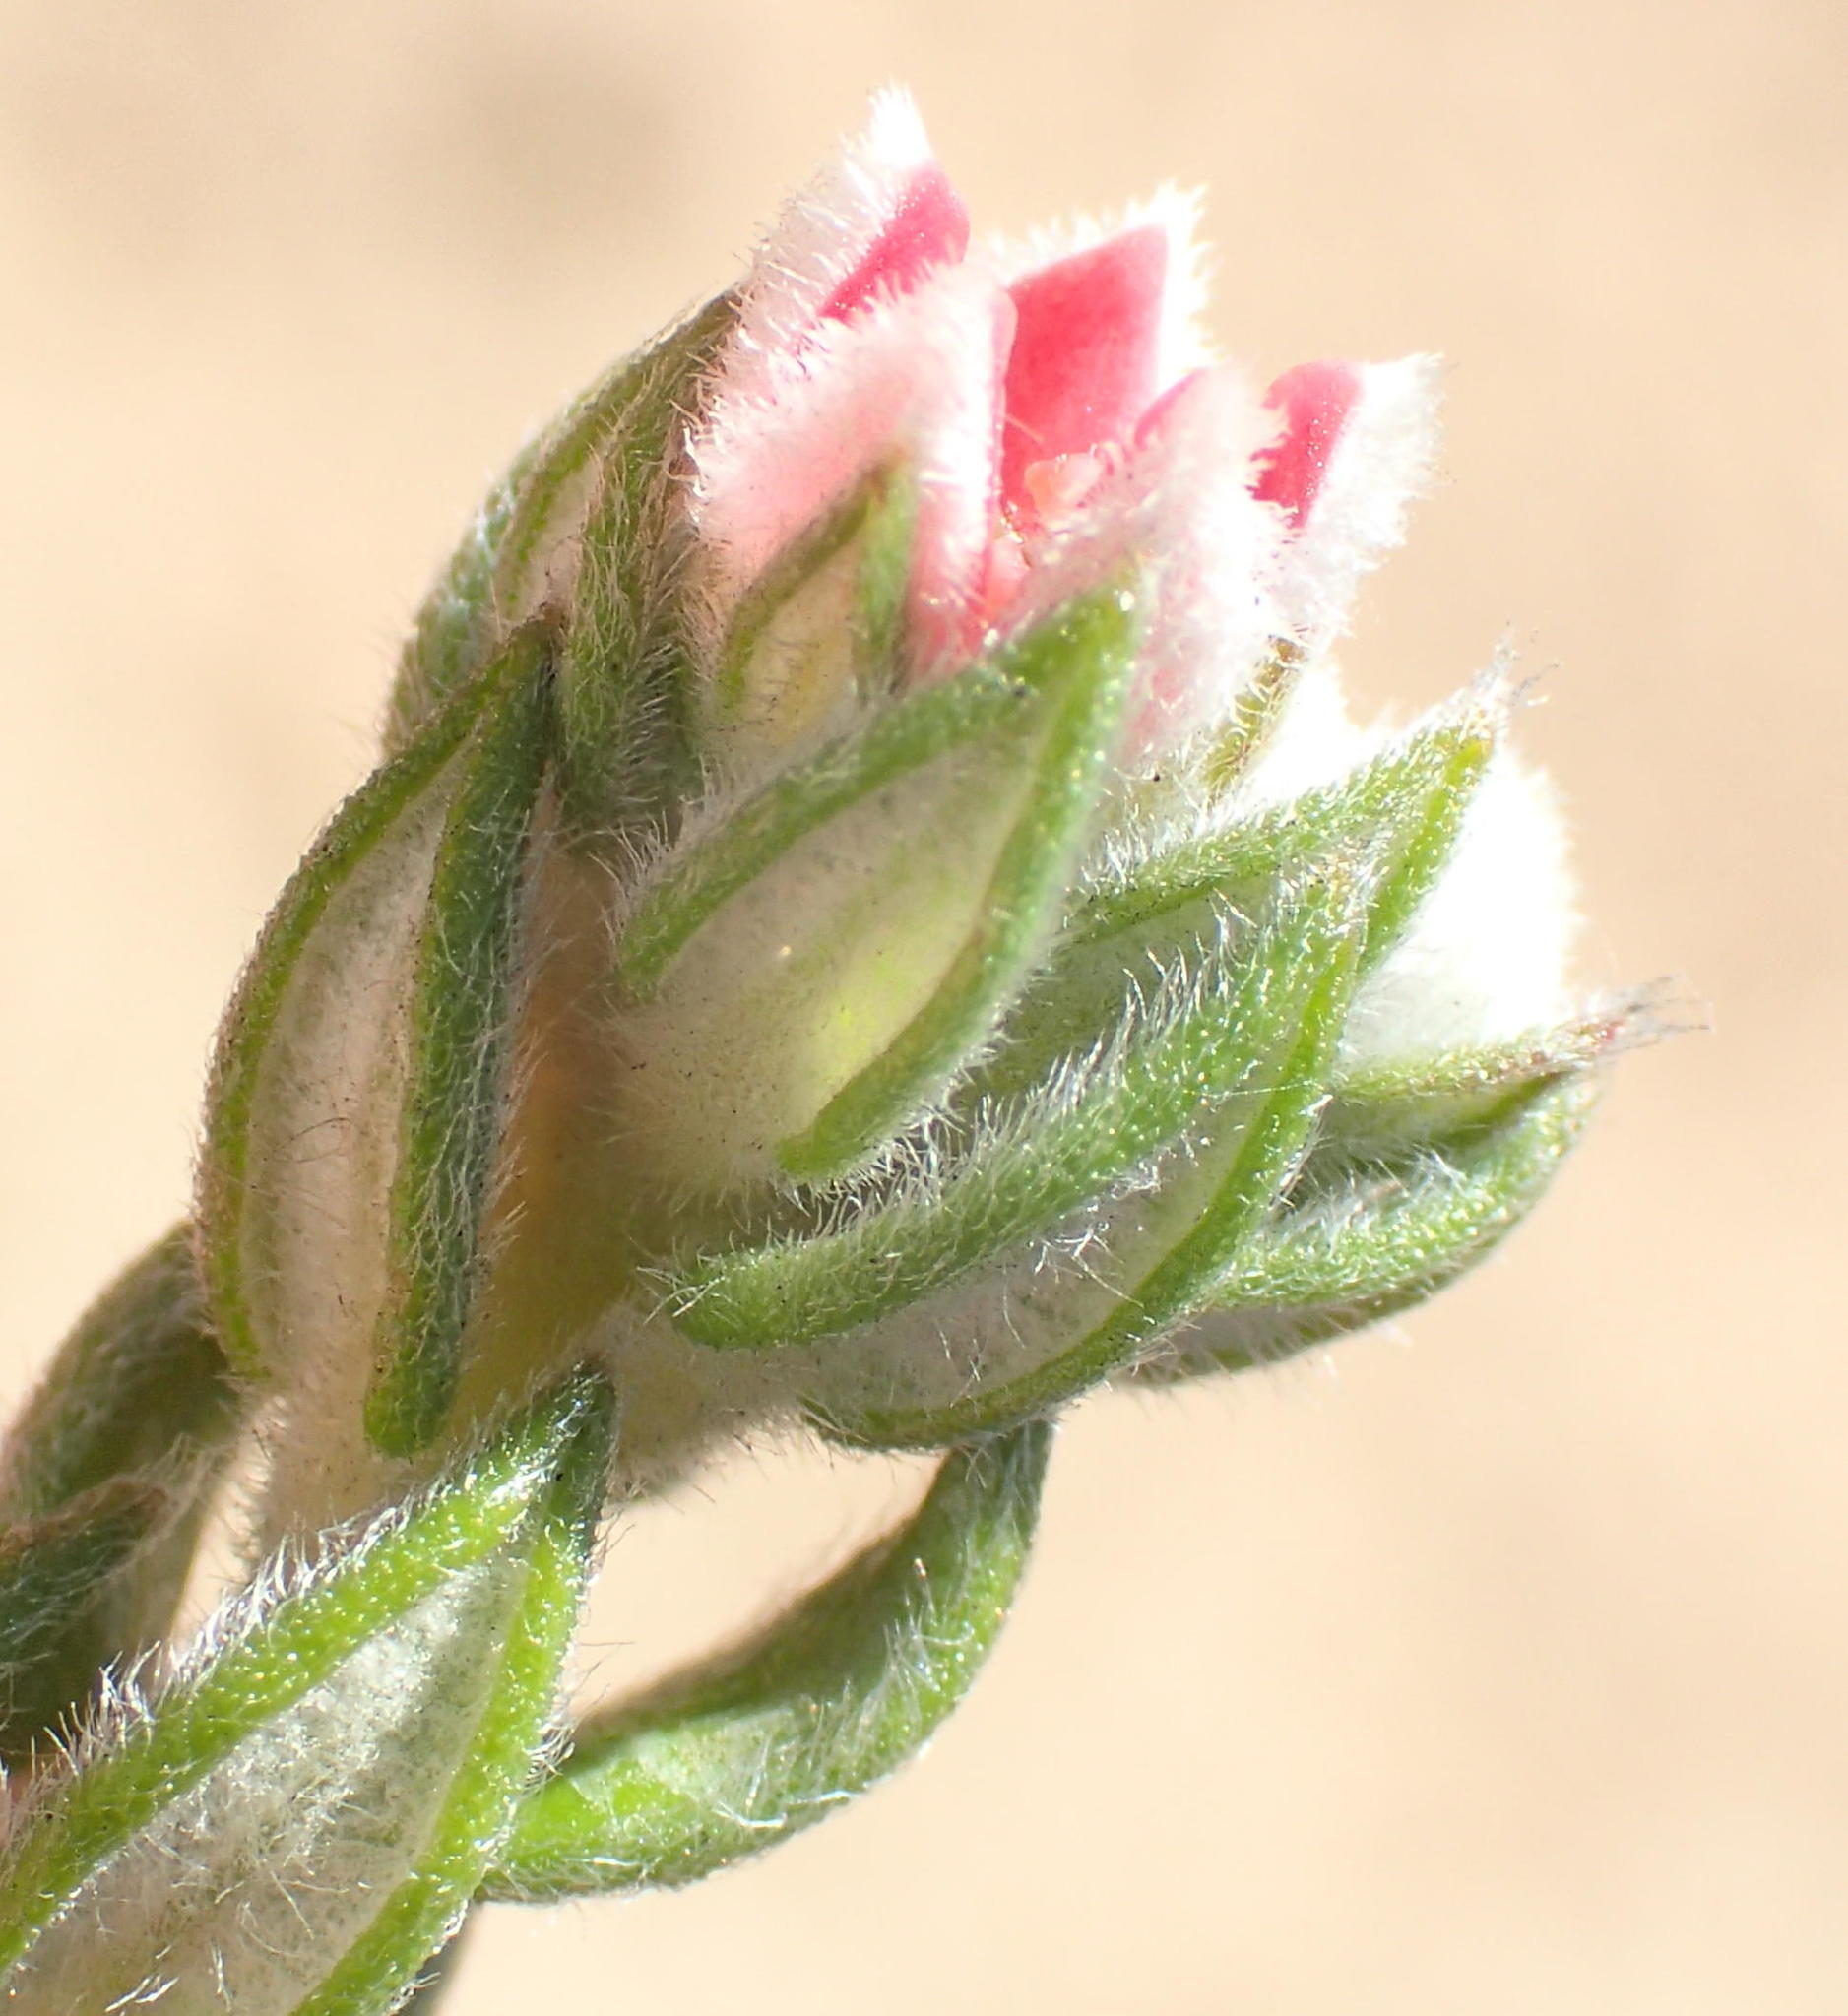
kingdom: Plantae
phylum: Tracheophyta
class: Magnoliopsida
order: Rosales
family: Rhamnaceae
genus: Phylica
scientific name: Phylica purpurea
